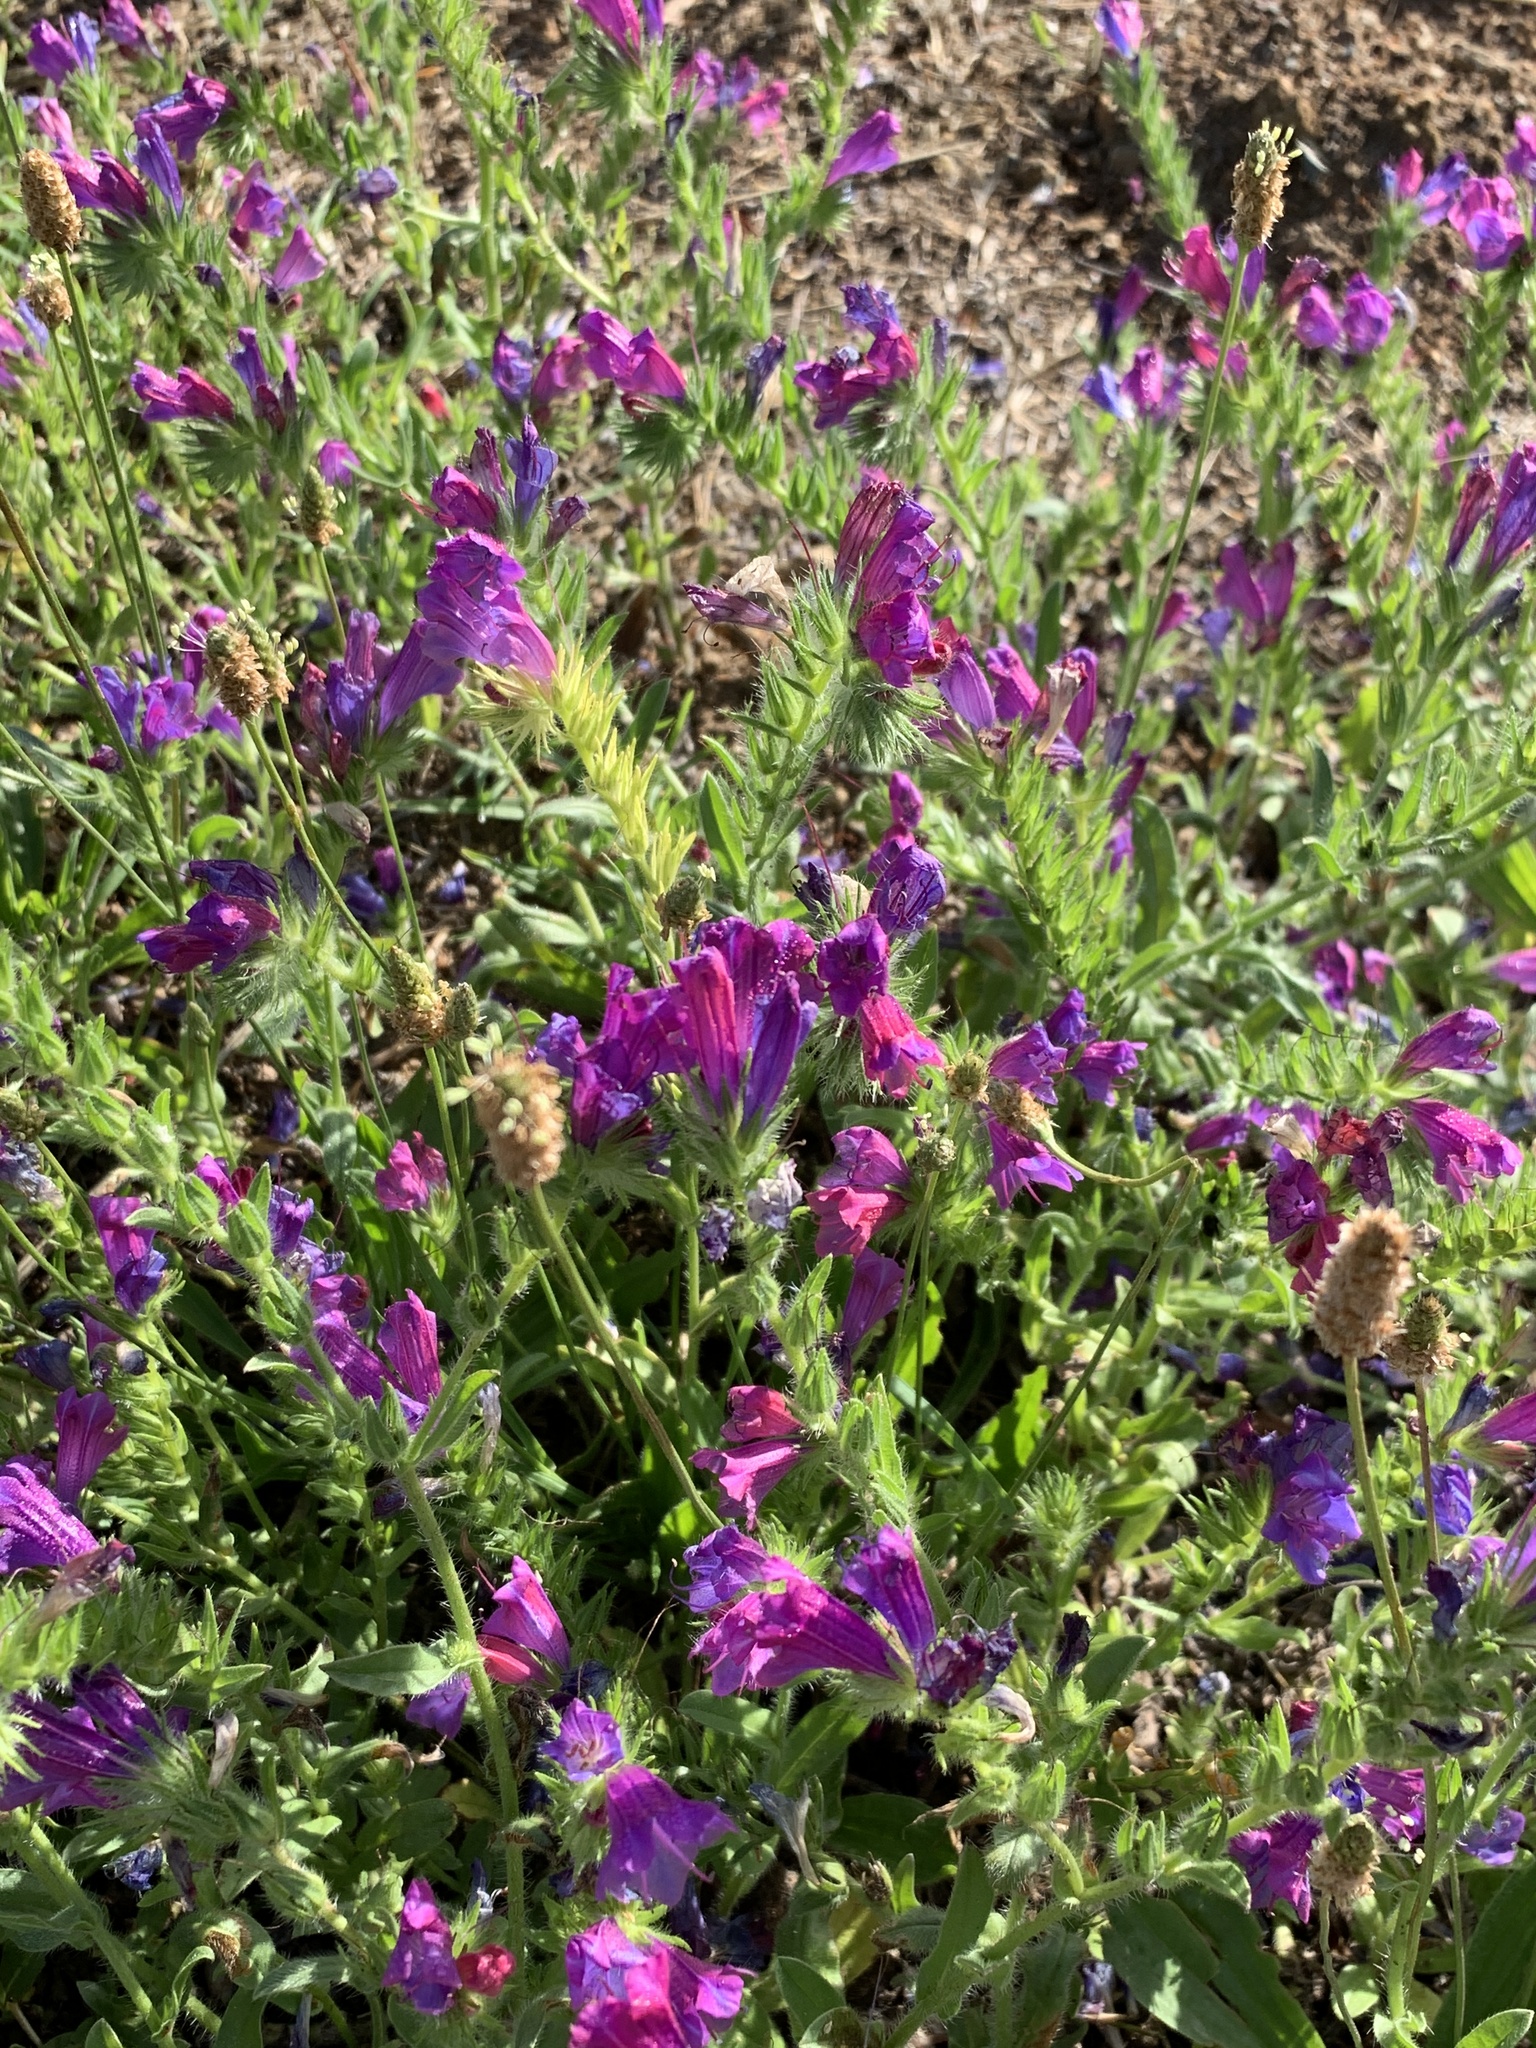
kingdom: Plantae
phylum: Tracheophyta
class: Magnoliopsida
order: Boraginales
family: Boraginaceae
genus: Echium
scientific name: Echium plantagineum
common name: Purple viper's-bugloss
